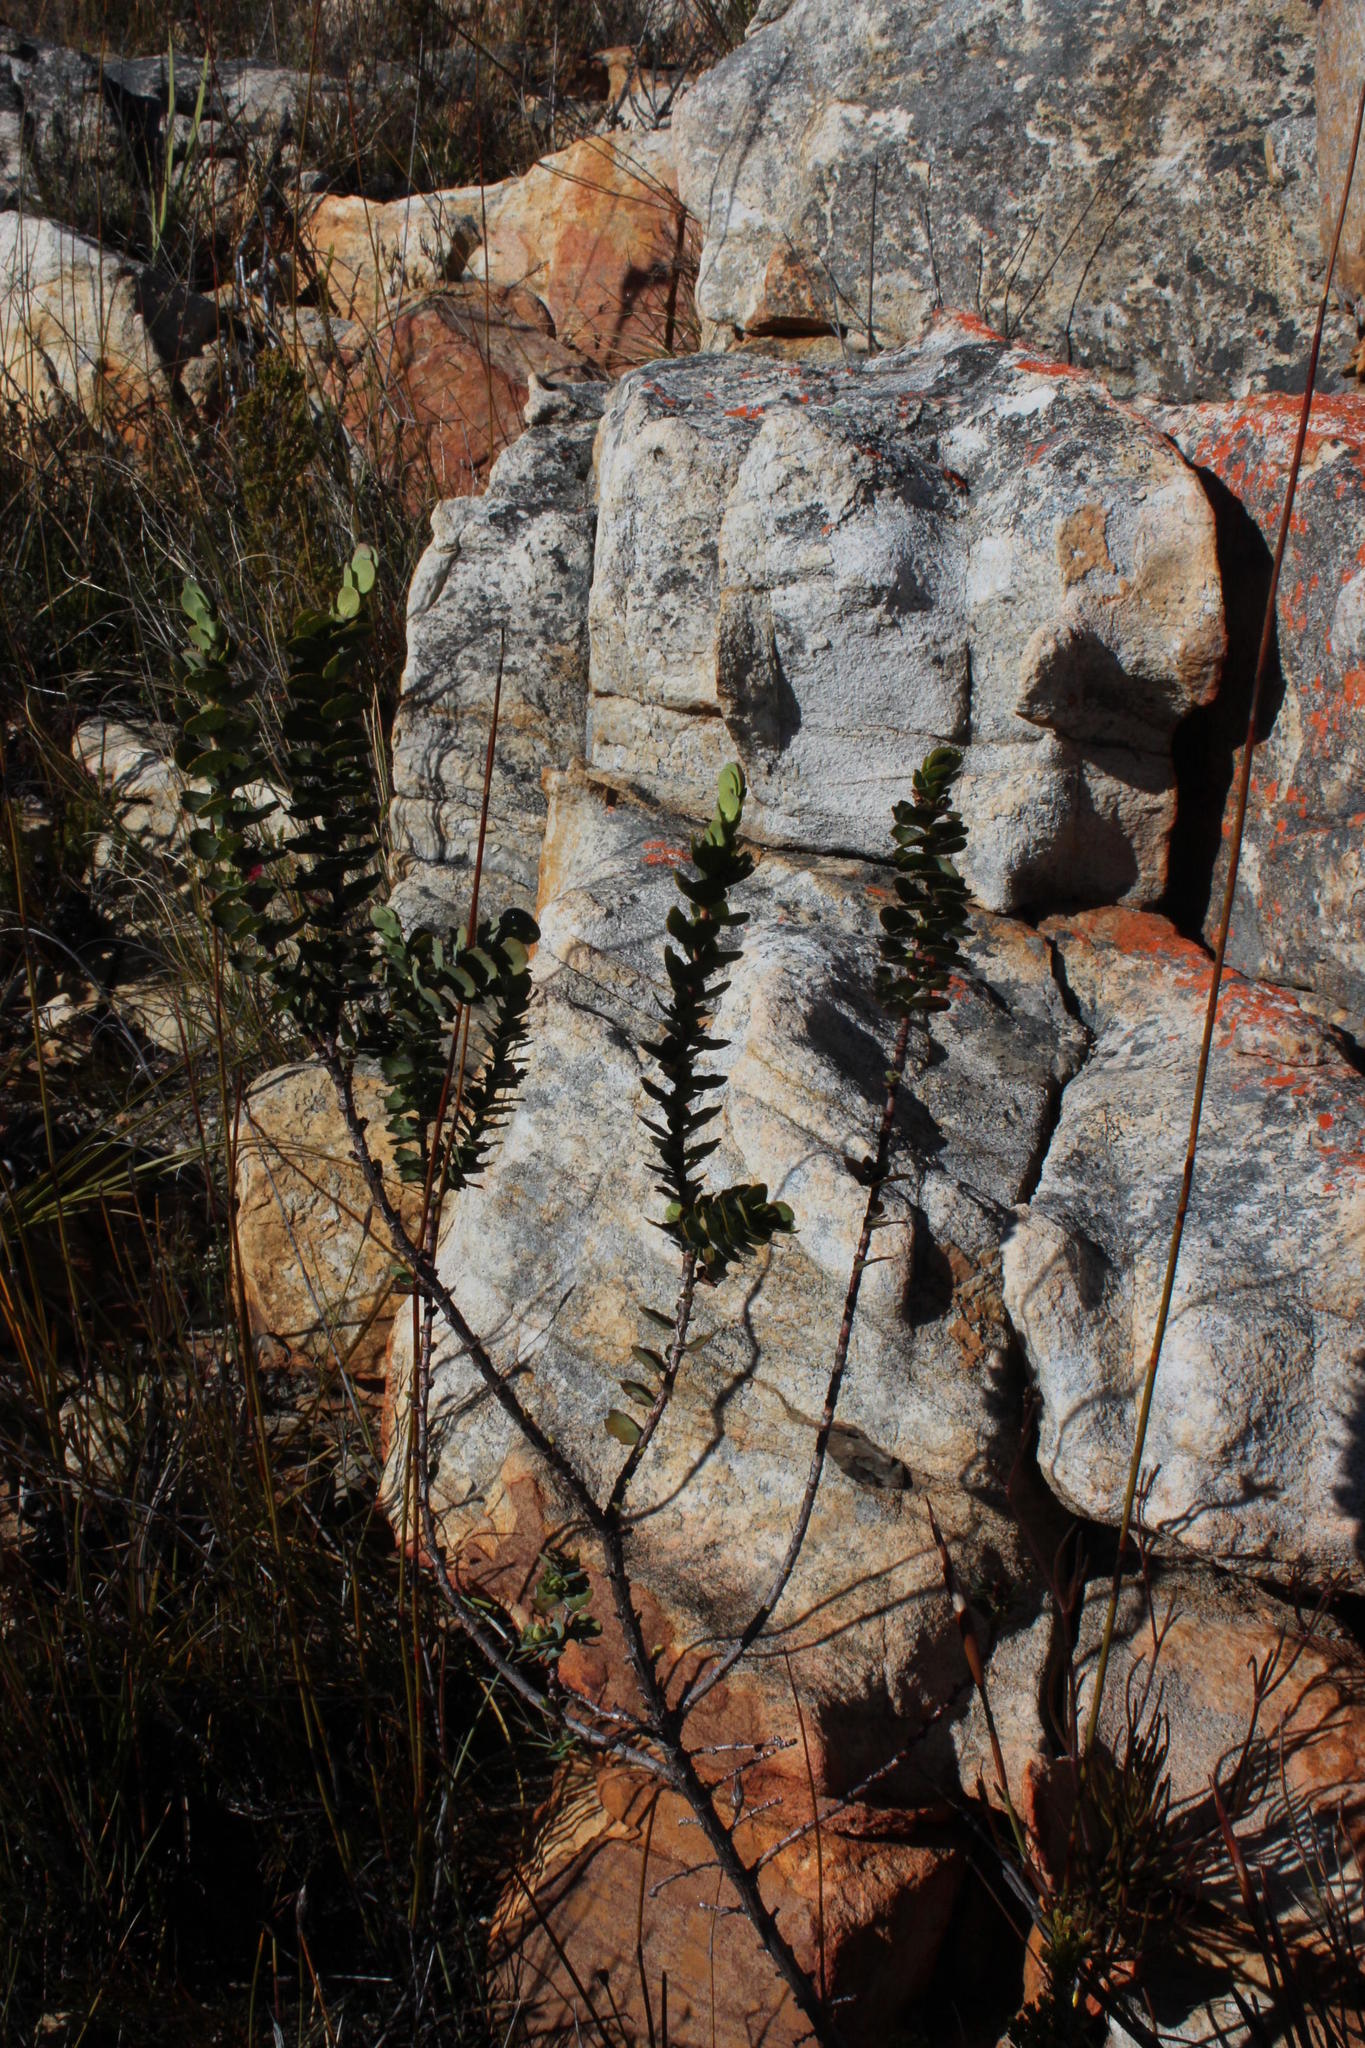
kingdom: Plantae
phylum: Tracheophyta
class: Magnoliopsida
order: Rosales
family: Rosaceae
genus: Cliffortia
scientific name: Cliffortia crenata
